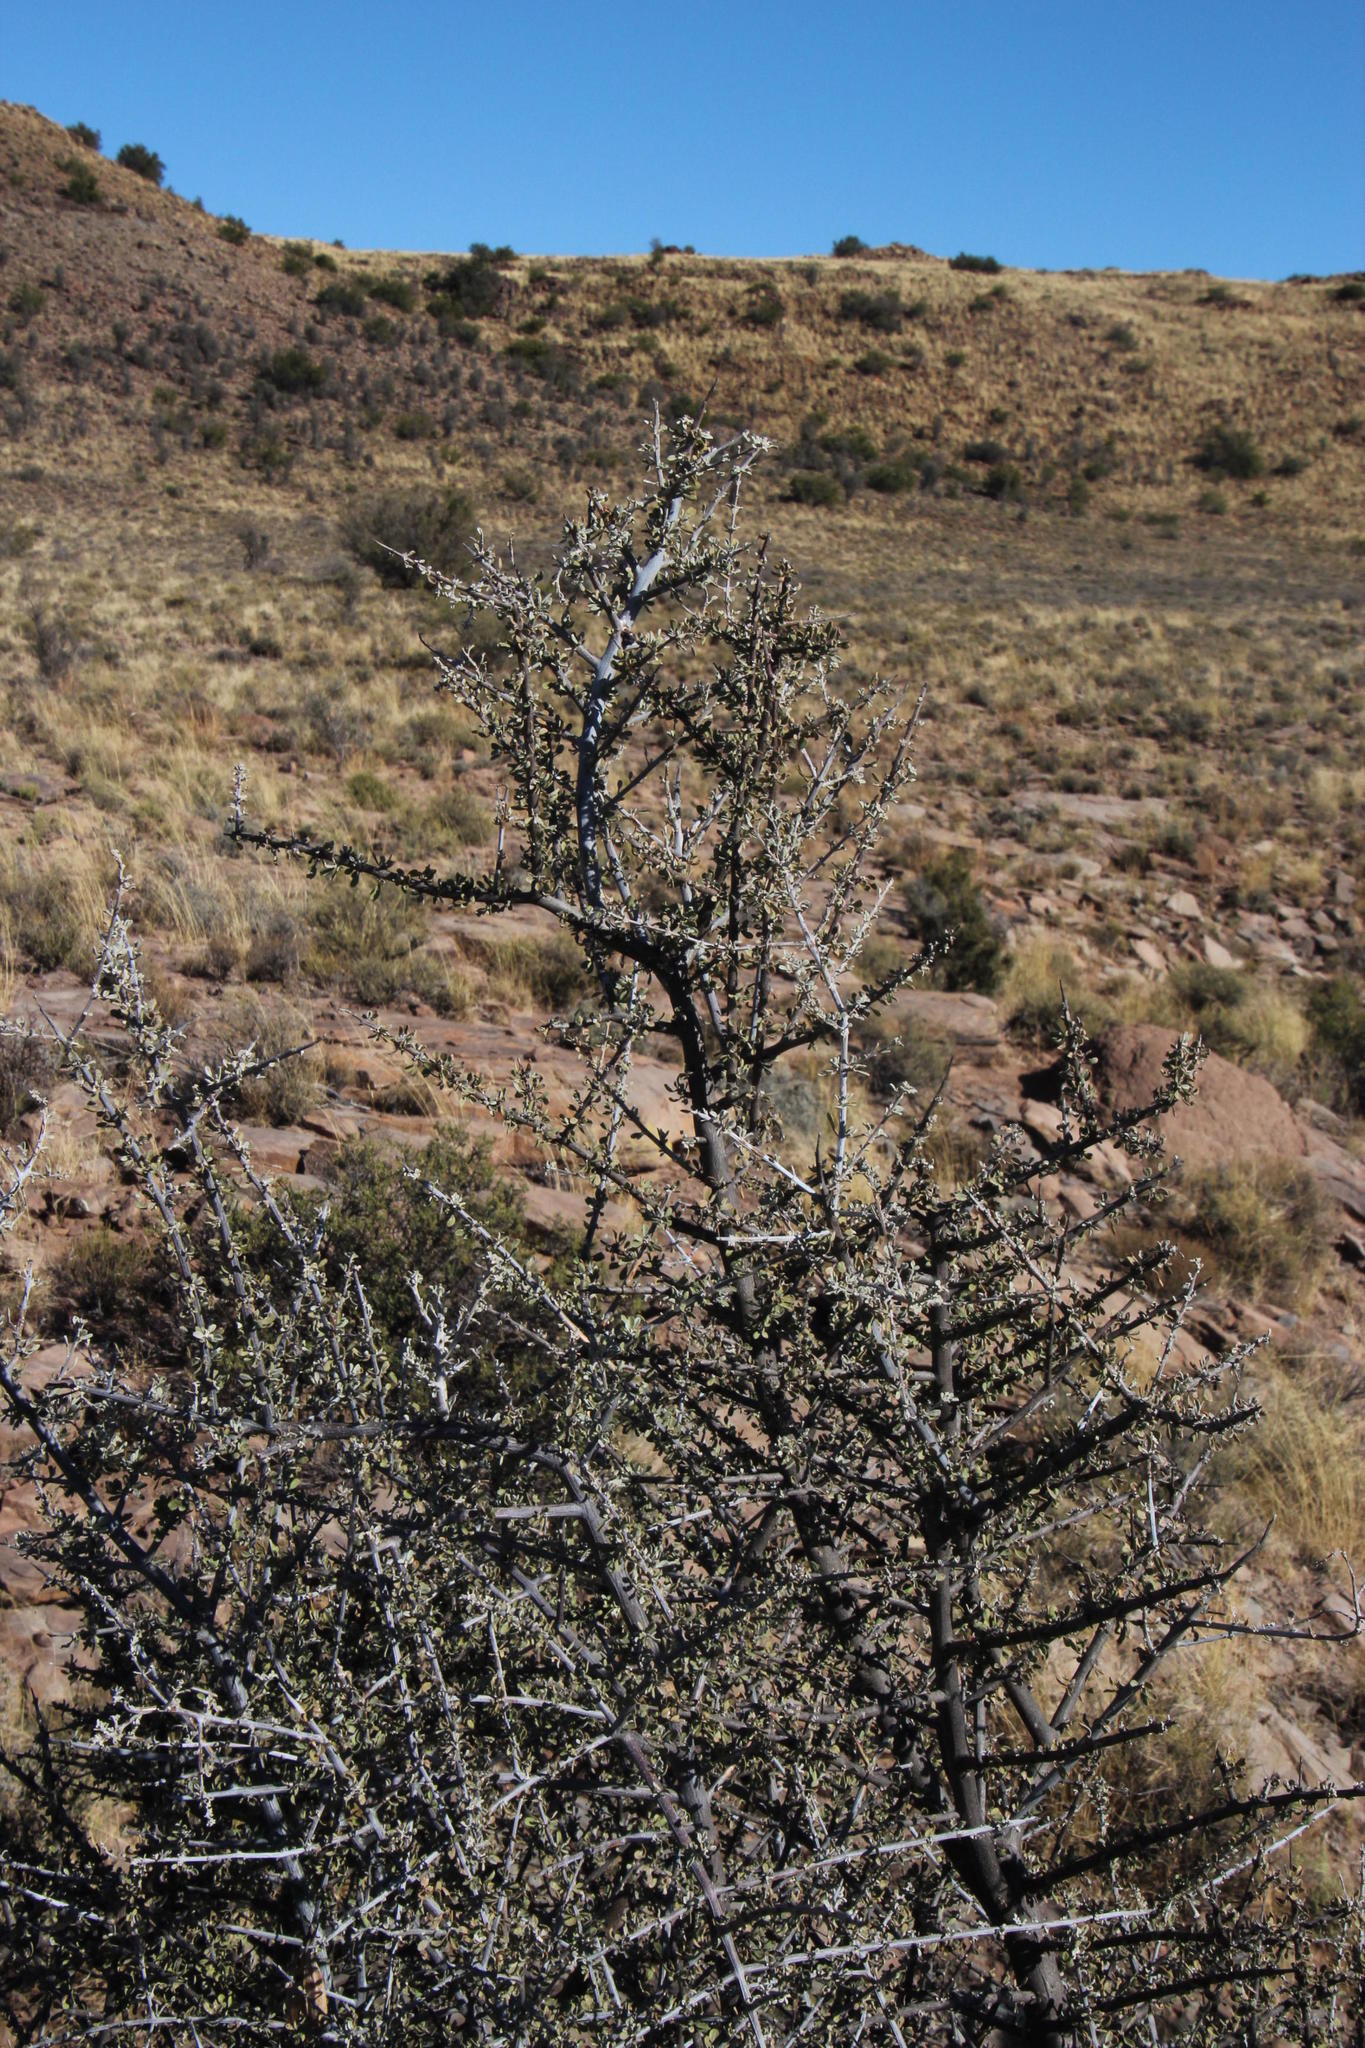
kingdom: Plantae
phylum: Tracheophyta
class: Magnoliopsida
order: Lamiales
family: Bignoniaceae
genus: Rhigozum
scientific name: Rhigozum obovatum
